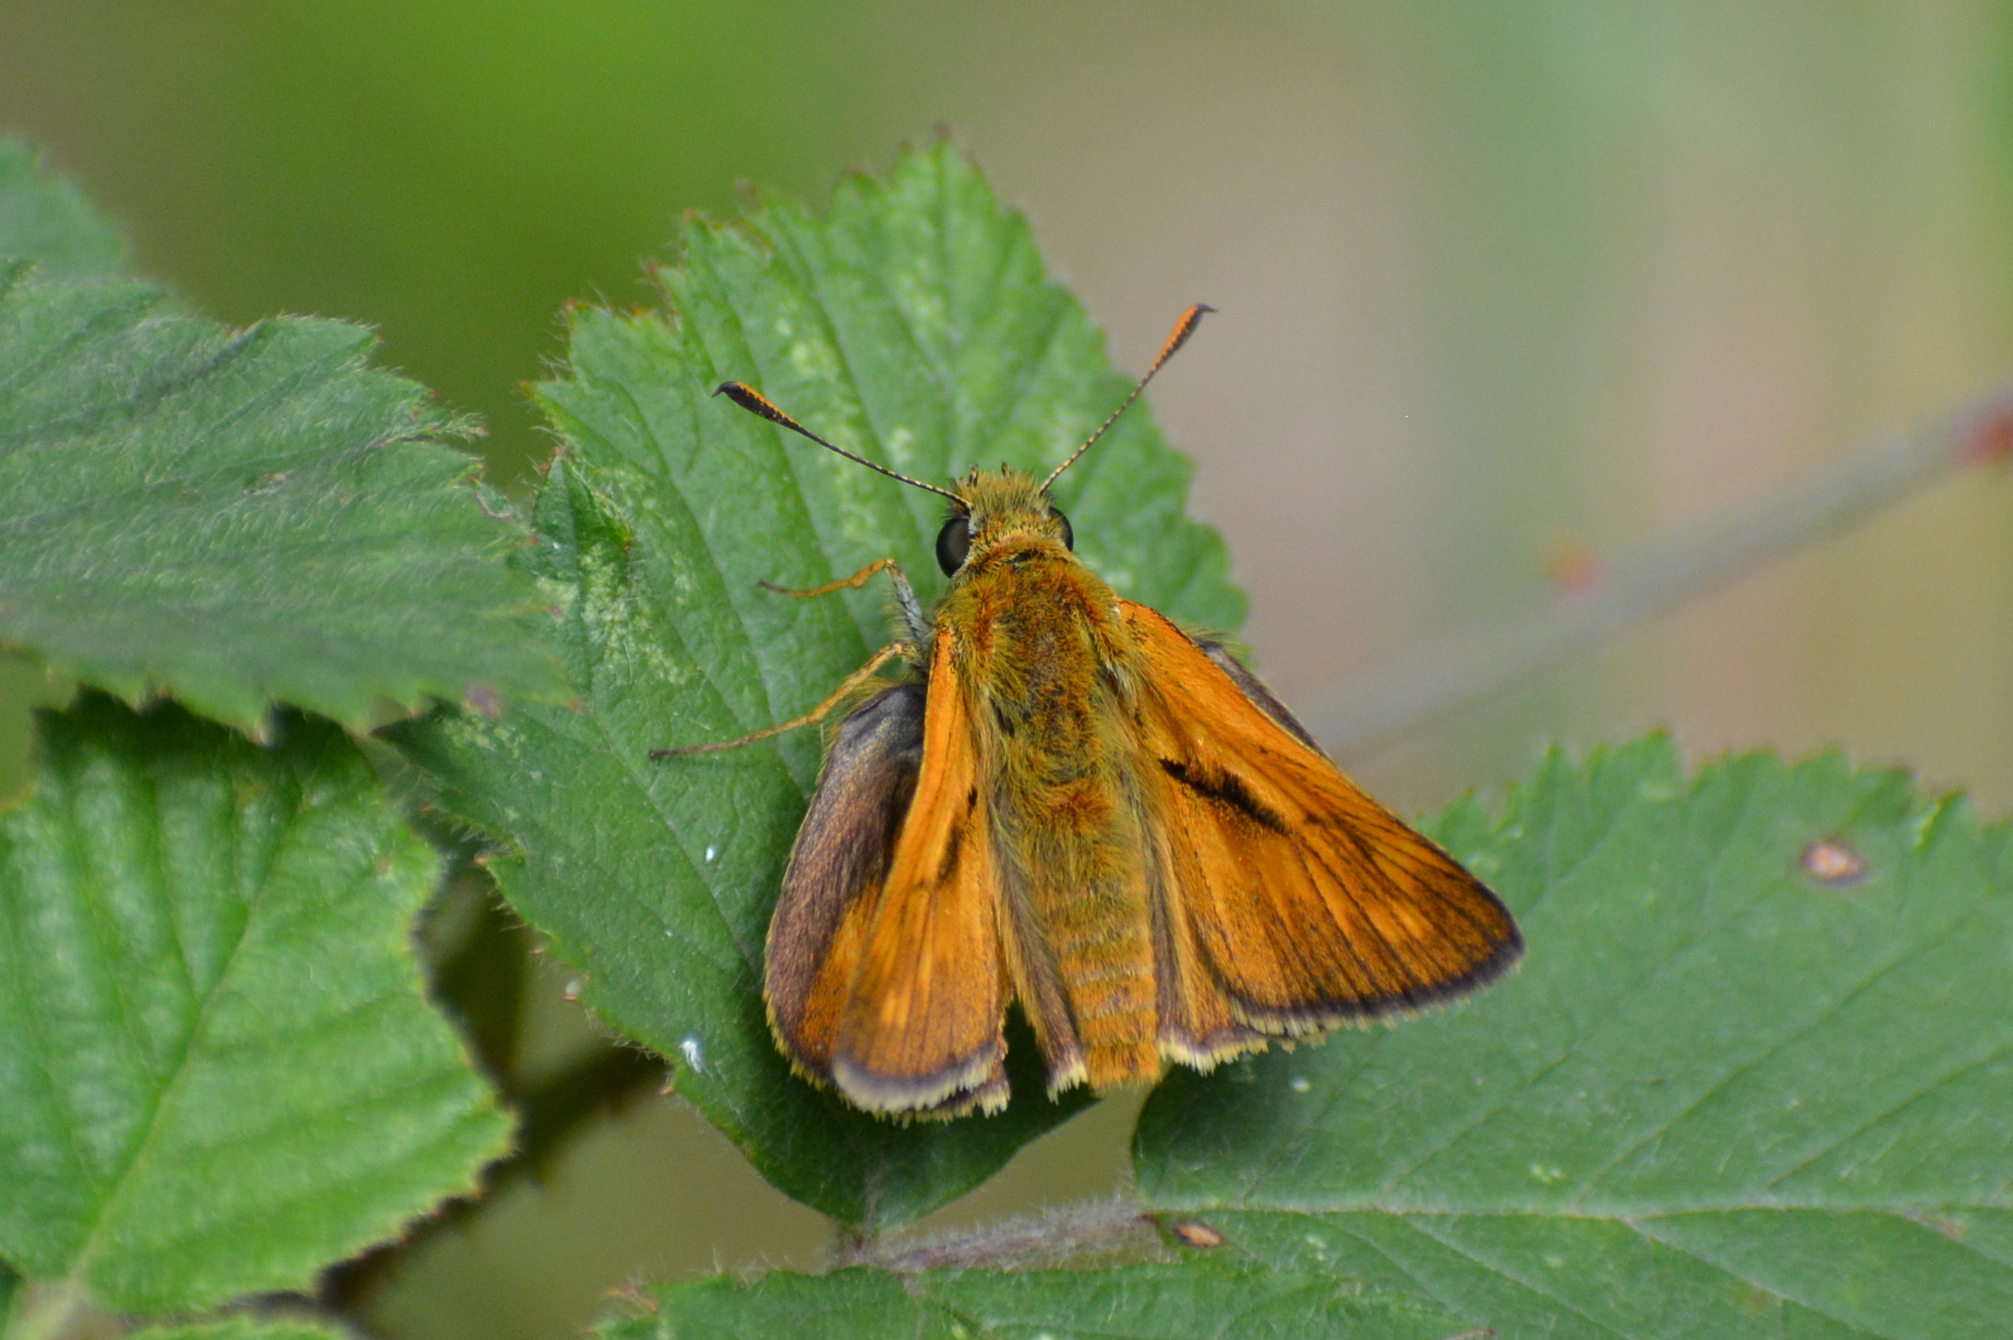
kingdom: Animalia
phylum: Arthropoda
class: Insecta
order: Lepidoptera
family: Hesperiidae
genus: Ochlodes
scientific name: Ochlodes venata
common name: Large skipper
